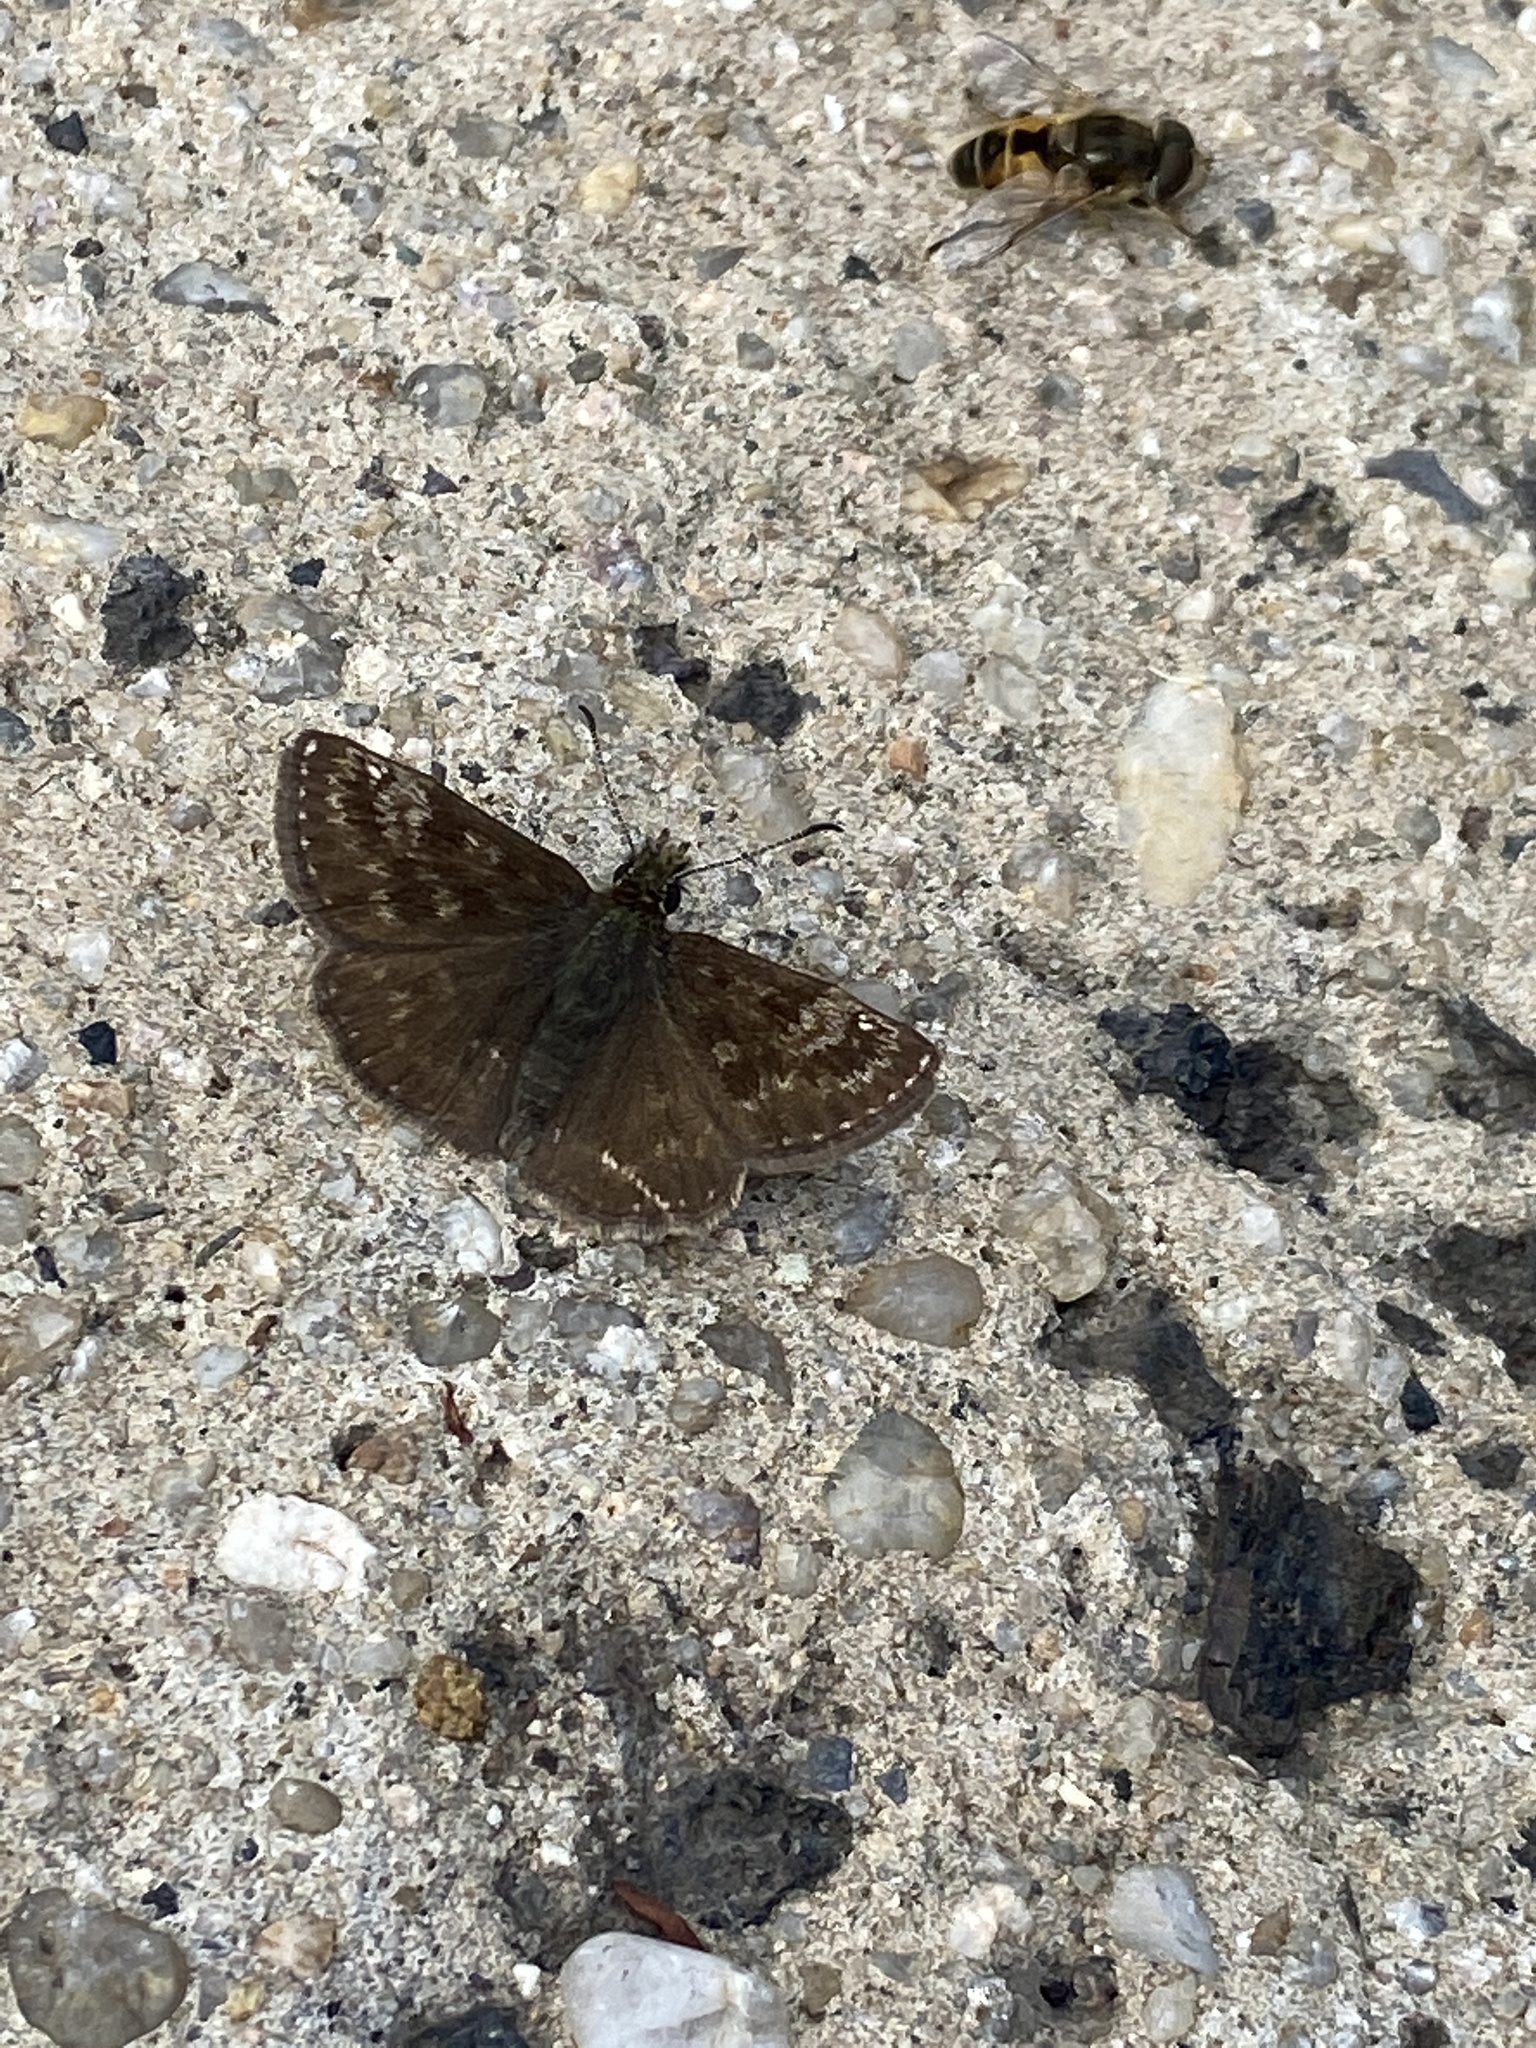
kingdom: Animalia
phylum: Arthropoda
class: Insecta
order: Lepidoptera
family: Hesperiidae
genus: Erynnis
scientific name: Erynnis tages
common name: Dingy skipper
